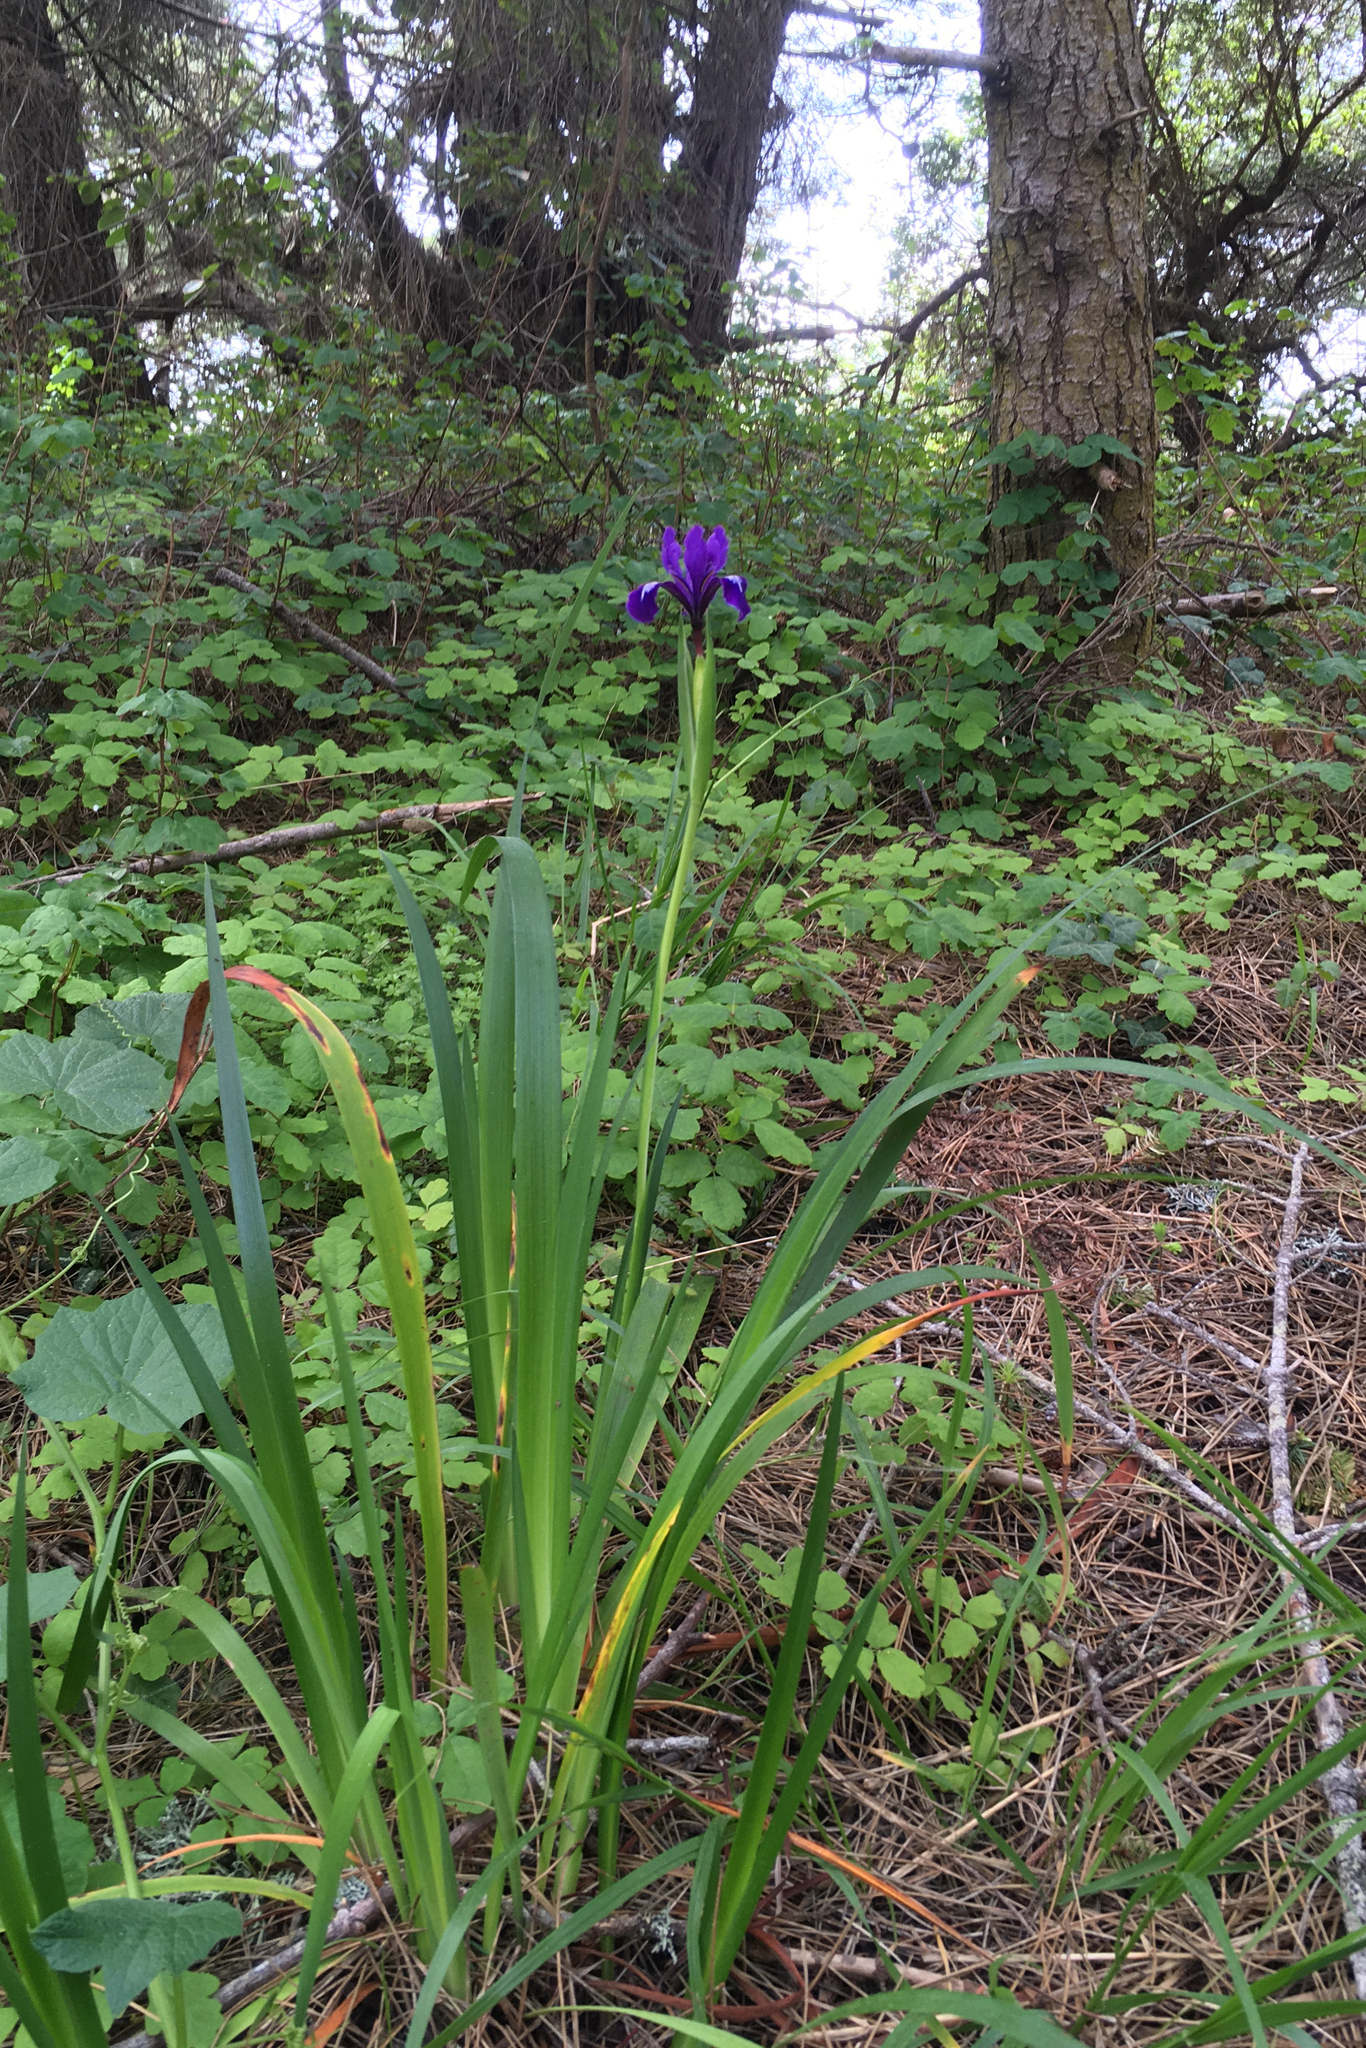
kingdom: Plantae
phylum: Tracheophyta
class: Liliopsida
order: Asparagales
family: Iridaceae
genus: Iris
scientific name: Iris douglasiana
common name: Marin iris
